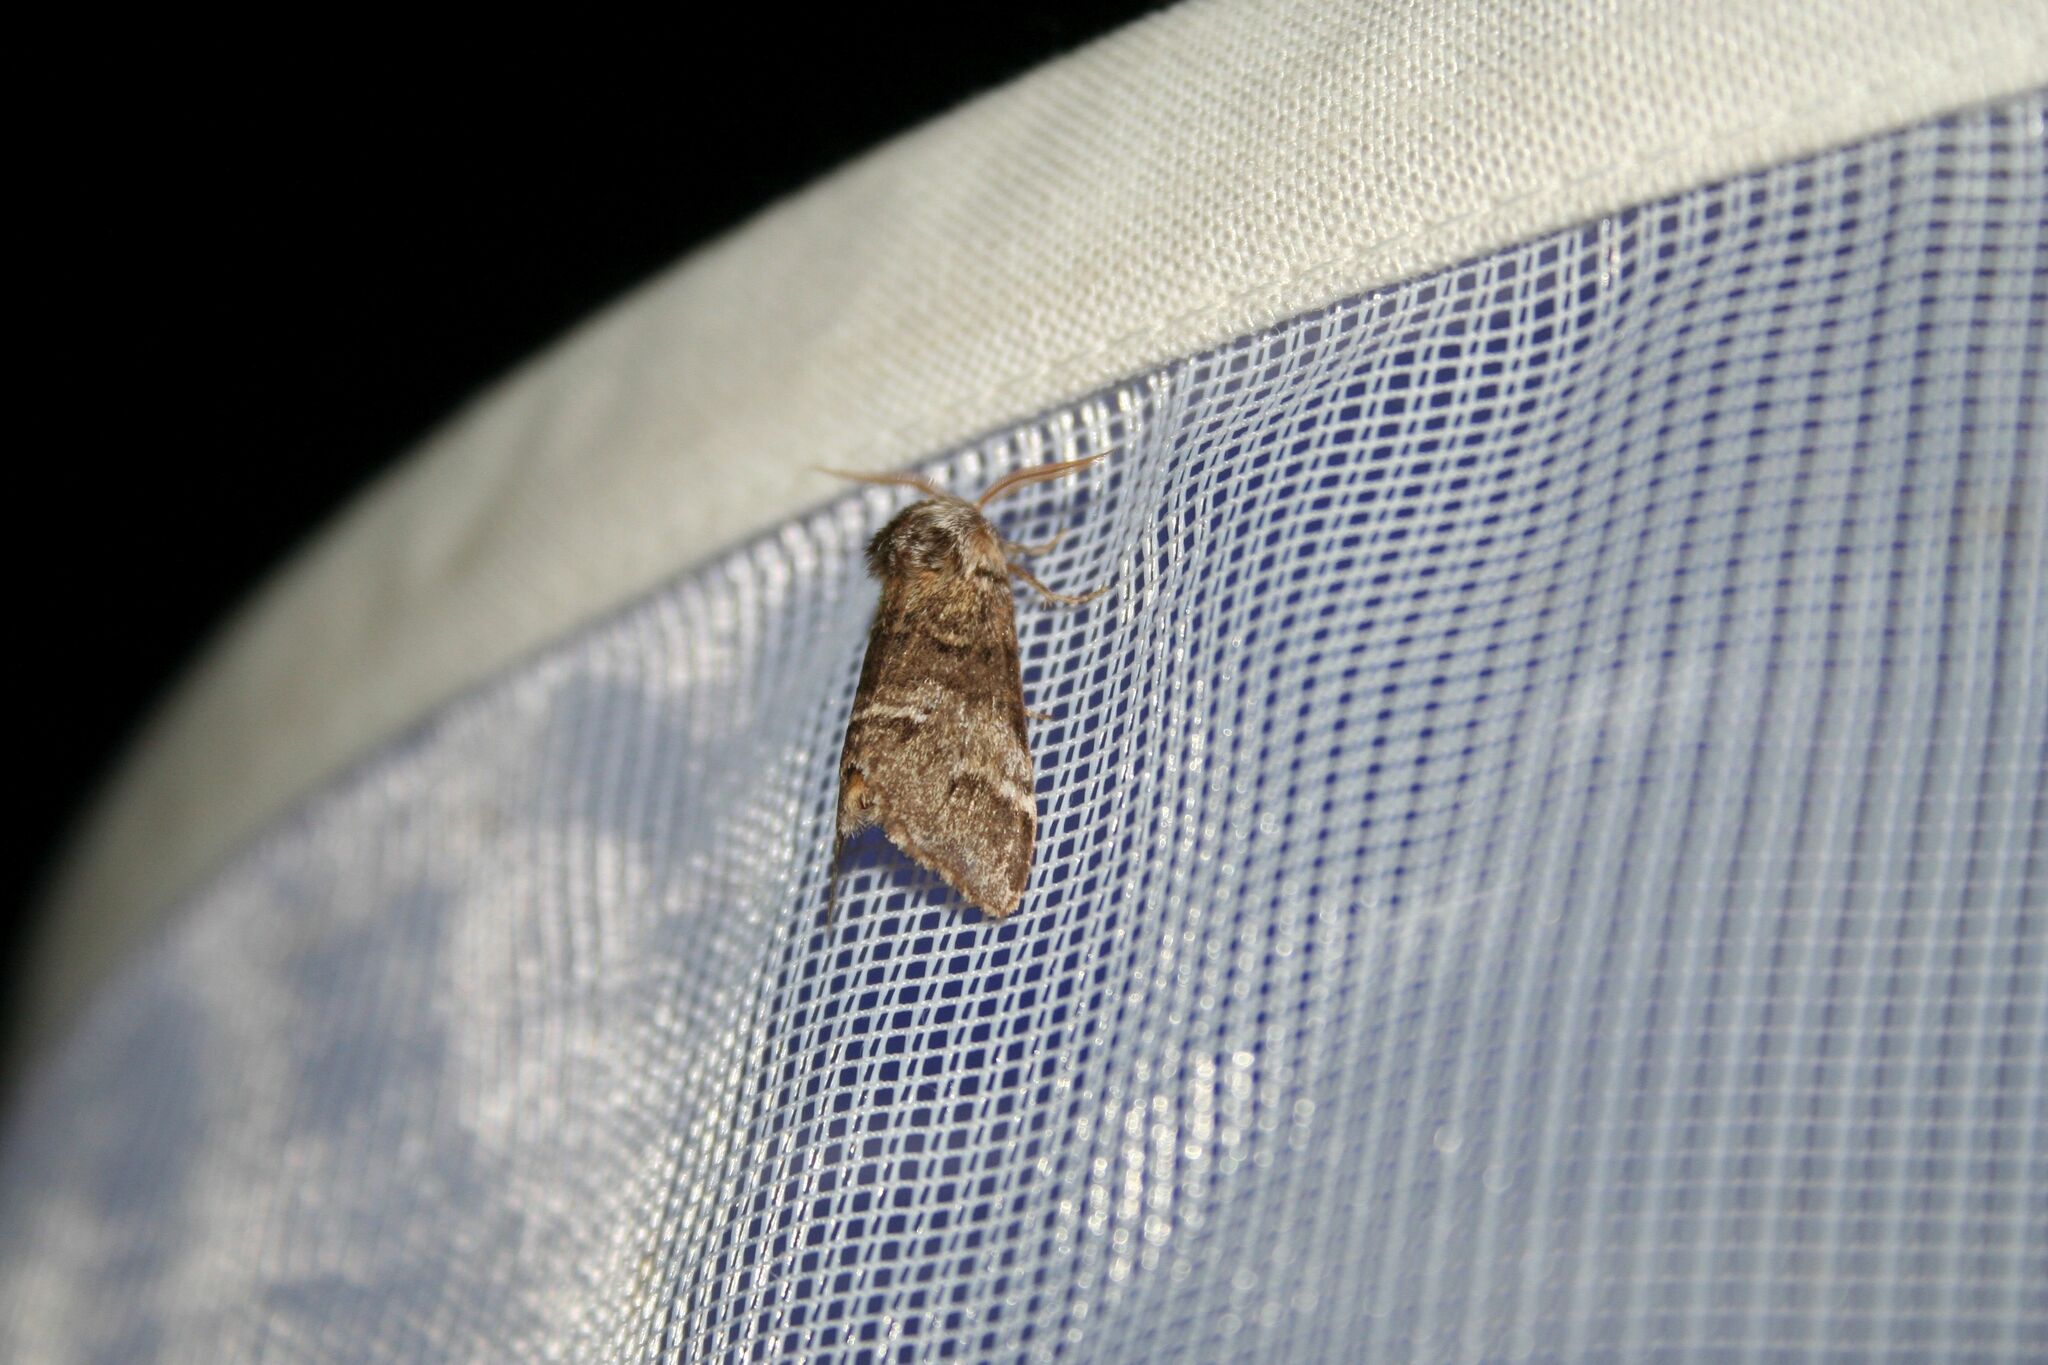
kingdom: Animalia
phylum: Arthropoda
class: Insecta
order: Lepidoptera
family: Notodontidae
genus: Drymonia
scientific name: Drymonia dodonaea
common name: Marbled brown
